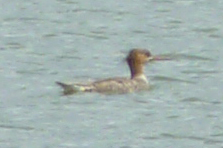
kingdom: Animalia
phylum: Chordata
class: Aves
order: Anseriformes
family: Anatidae
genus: Mergus
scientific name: Mergus serrator
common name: Red-breasted merganser
